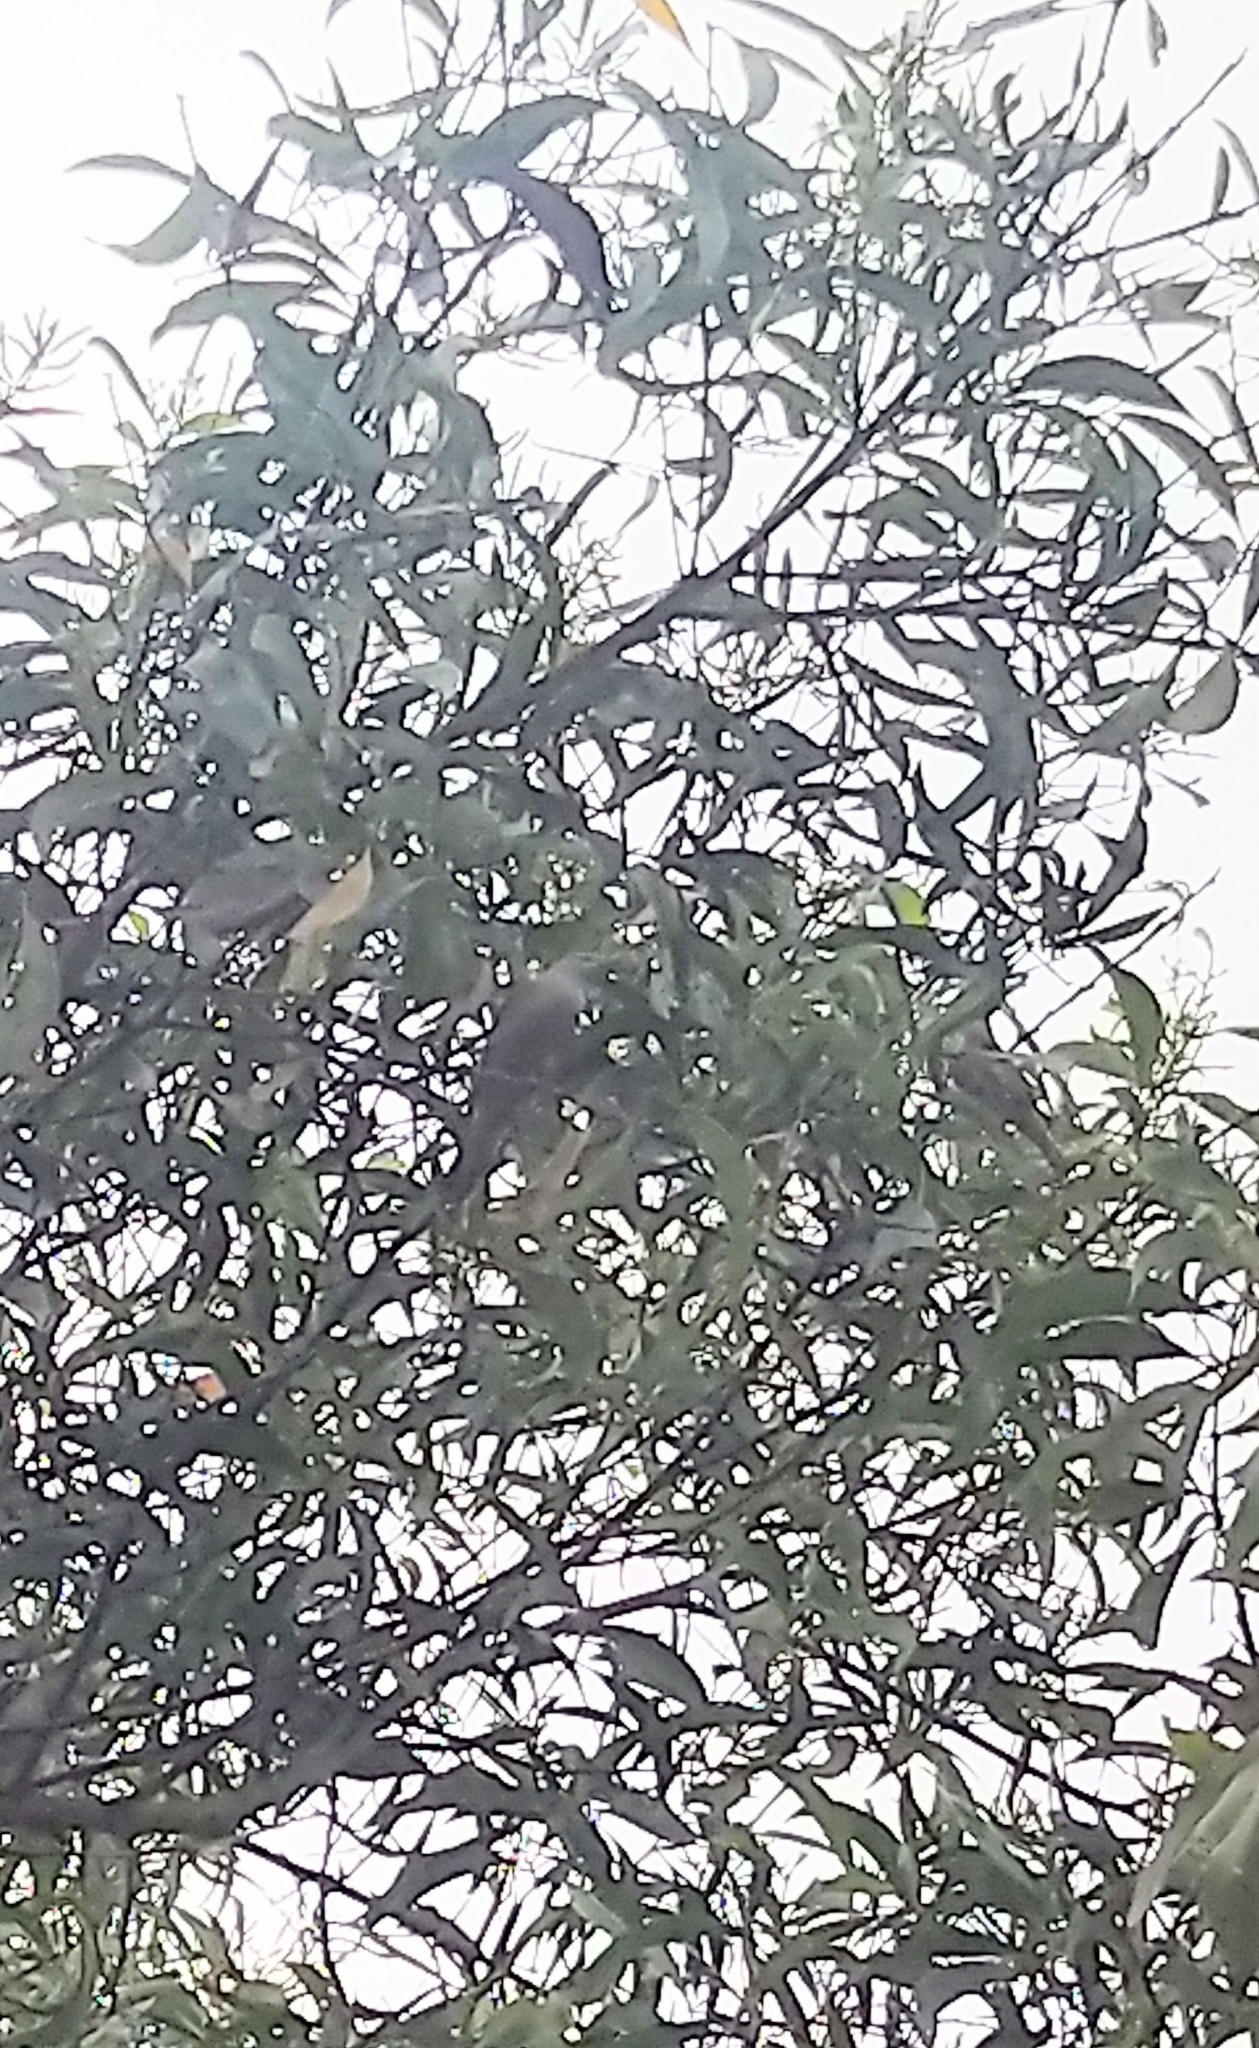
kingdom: Animalia
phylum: Chordata
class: Aves
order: Passeriformes
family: Sturnidae
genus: Sturnia
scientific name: Sturnia malabarica
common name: Chestnut-tailed starling
